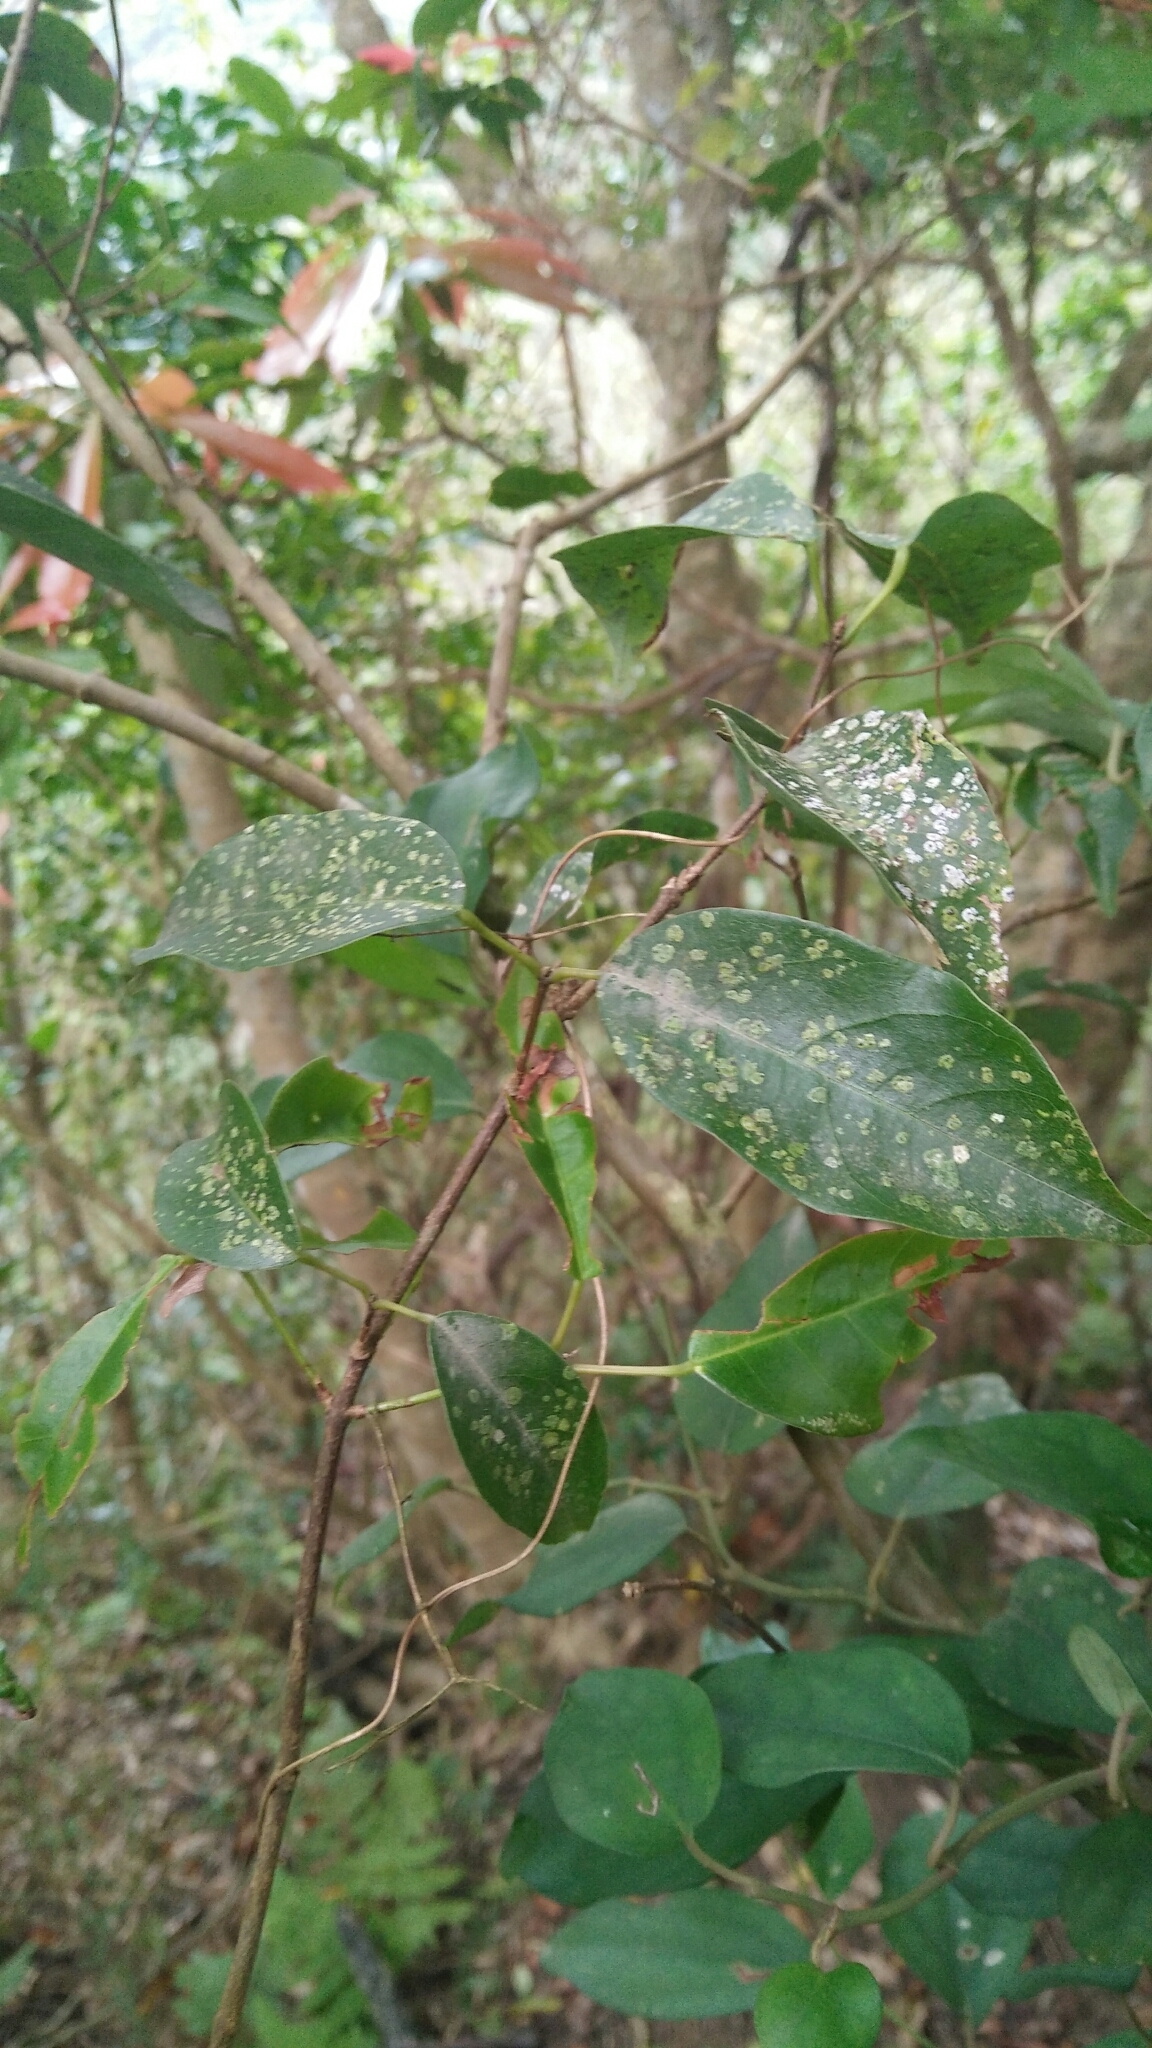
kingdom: Plantae
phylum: Tracheophyta
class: Magnoliopsida
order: Sapindales
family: Sapindaceae
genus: Acer
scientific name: Acer oblongum
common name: Himalayan maple
